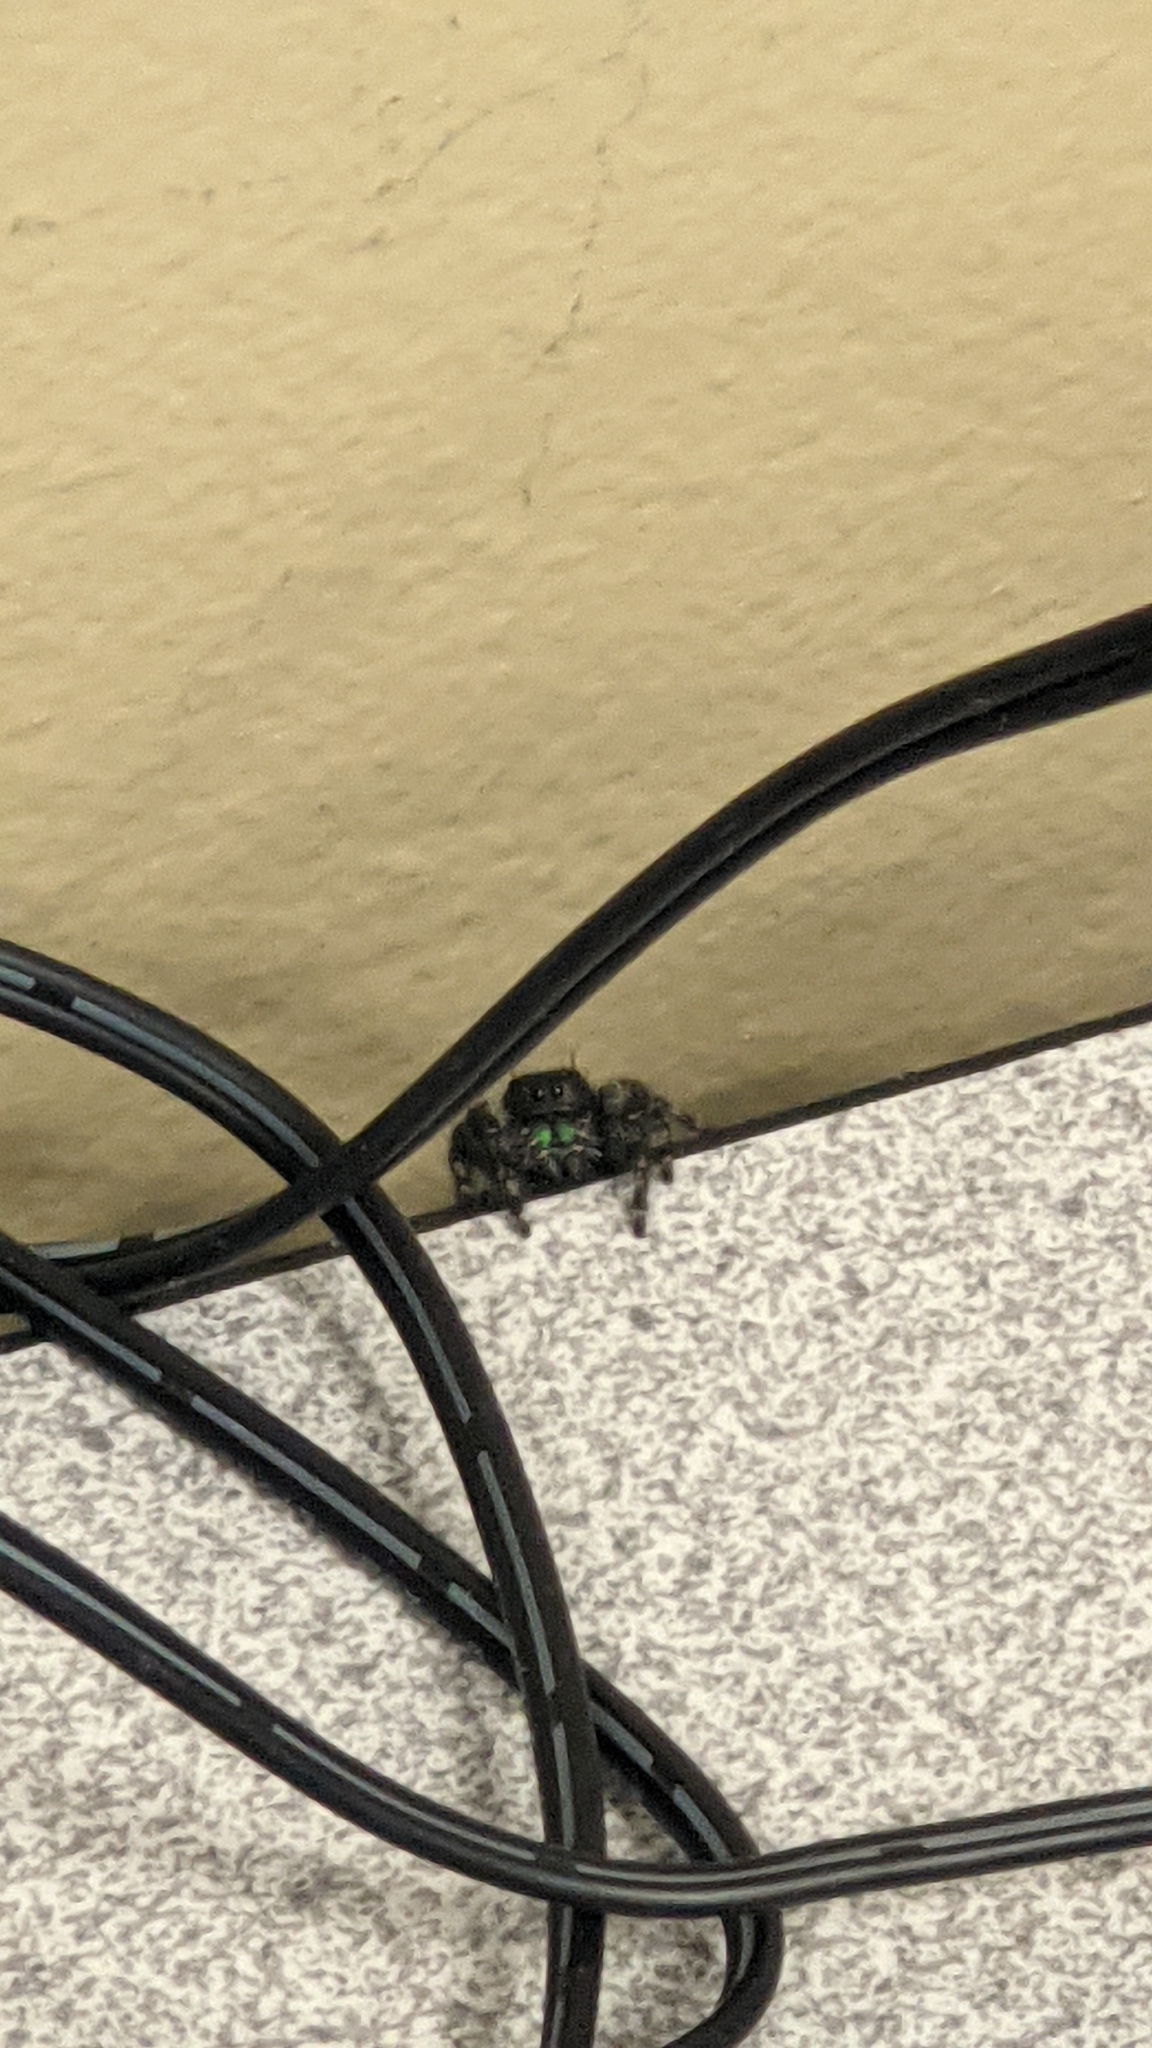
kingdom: Animalia
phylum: Arthropoda
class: Arachnida
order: Araneae
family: Salticidae
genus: Phidippus
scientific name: Phidippus audax
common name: Bold jumper
